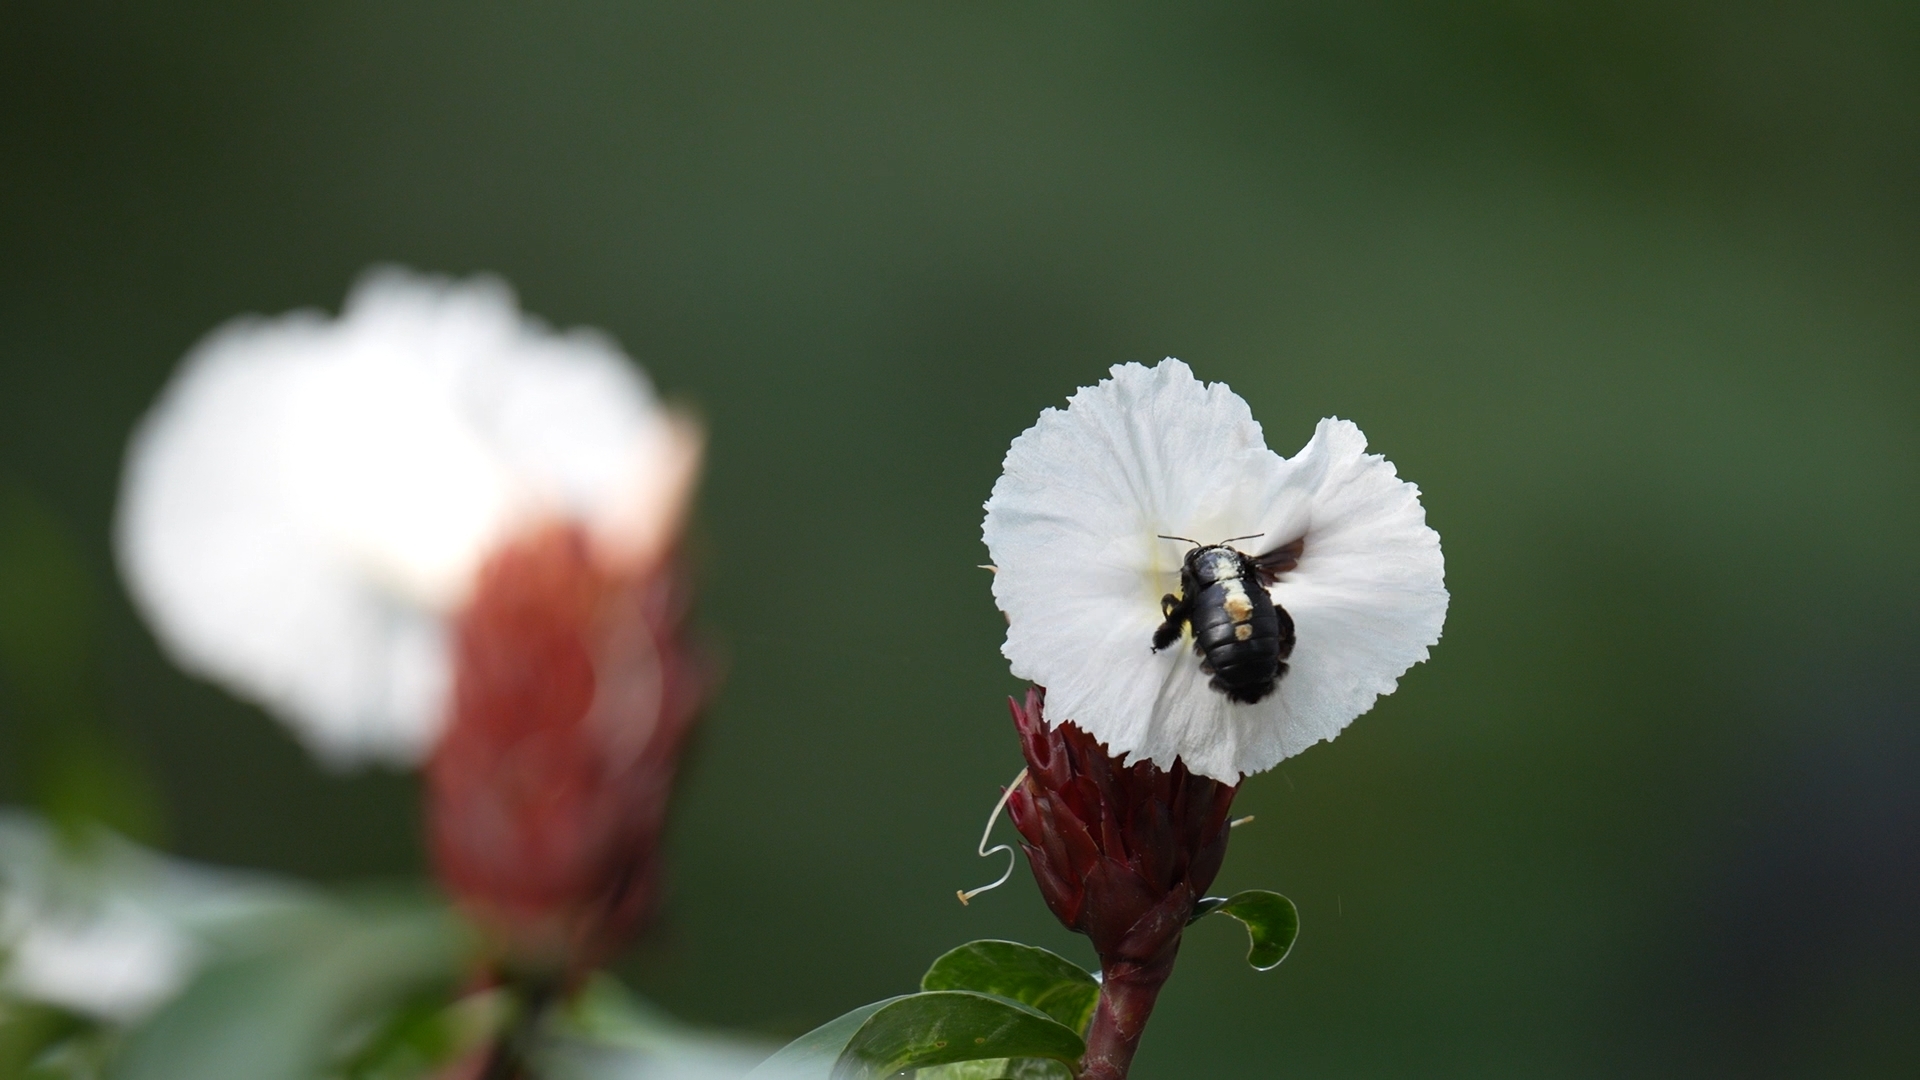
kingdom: Plantae
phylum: Tracheophyta
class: Liliopsida
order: Zingiberales
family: Costaceae
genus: Hellenia
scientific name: Hellenia speciosa
